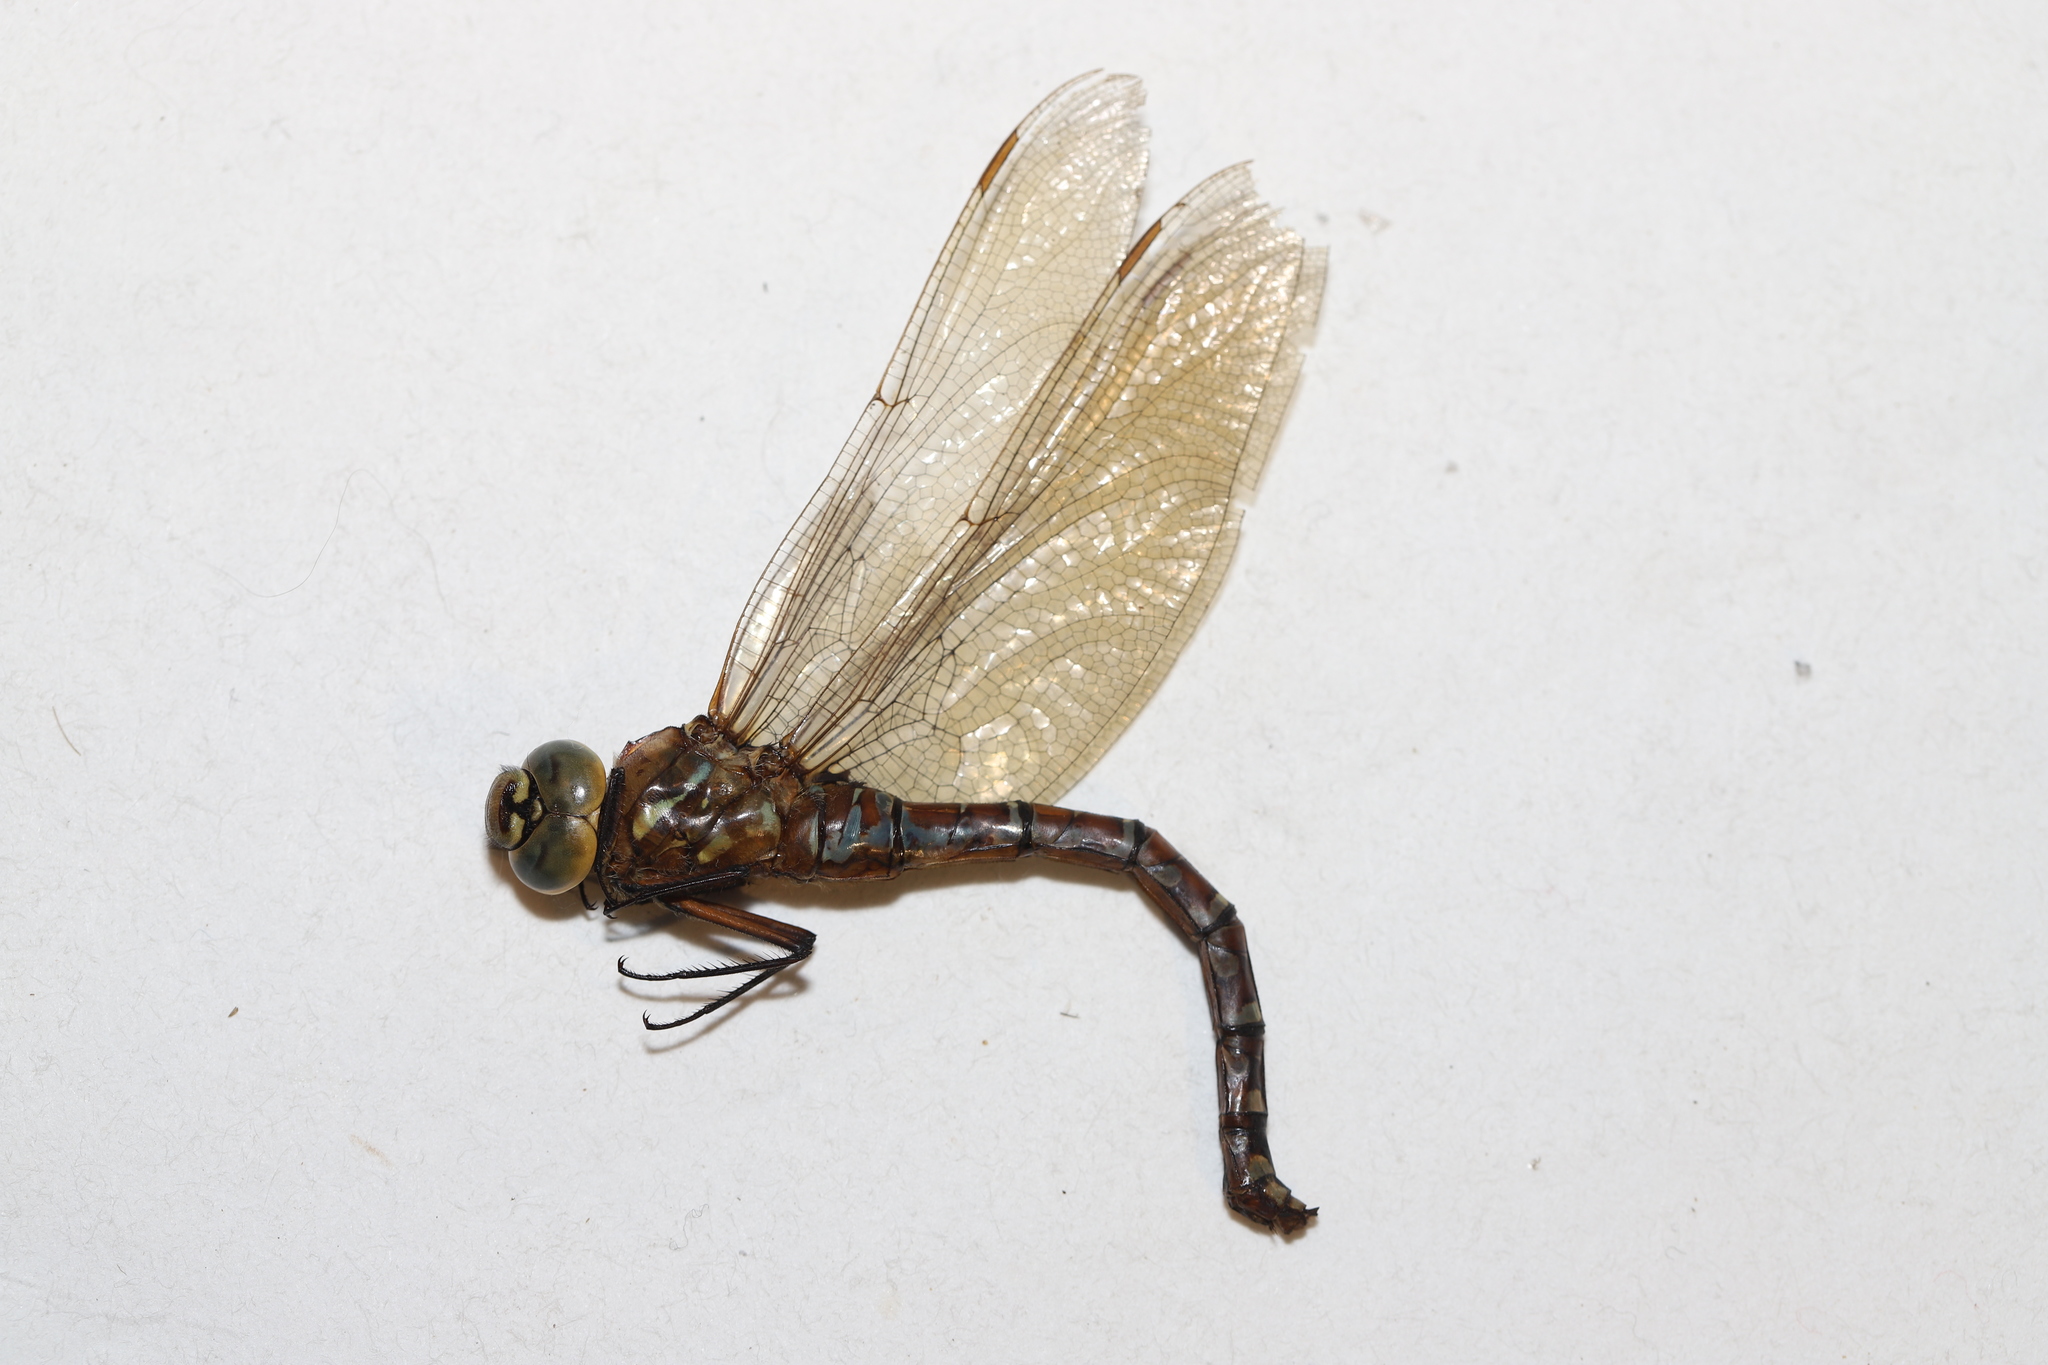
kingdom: Animalia
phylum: Arthropoda
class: Insecta
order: Odonata
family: Aeshnidae
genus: Aeshna
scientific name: Aeshna interrupta
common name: Variable darner
